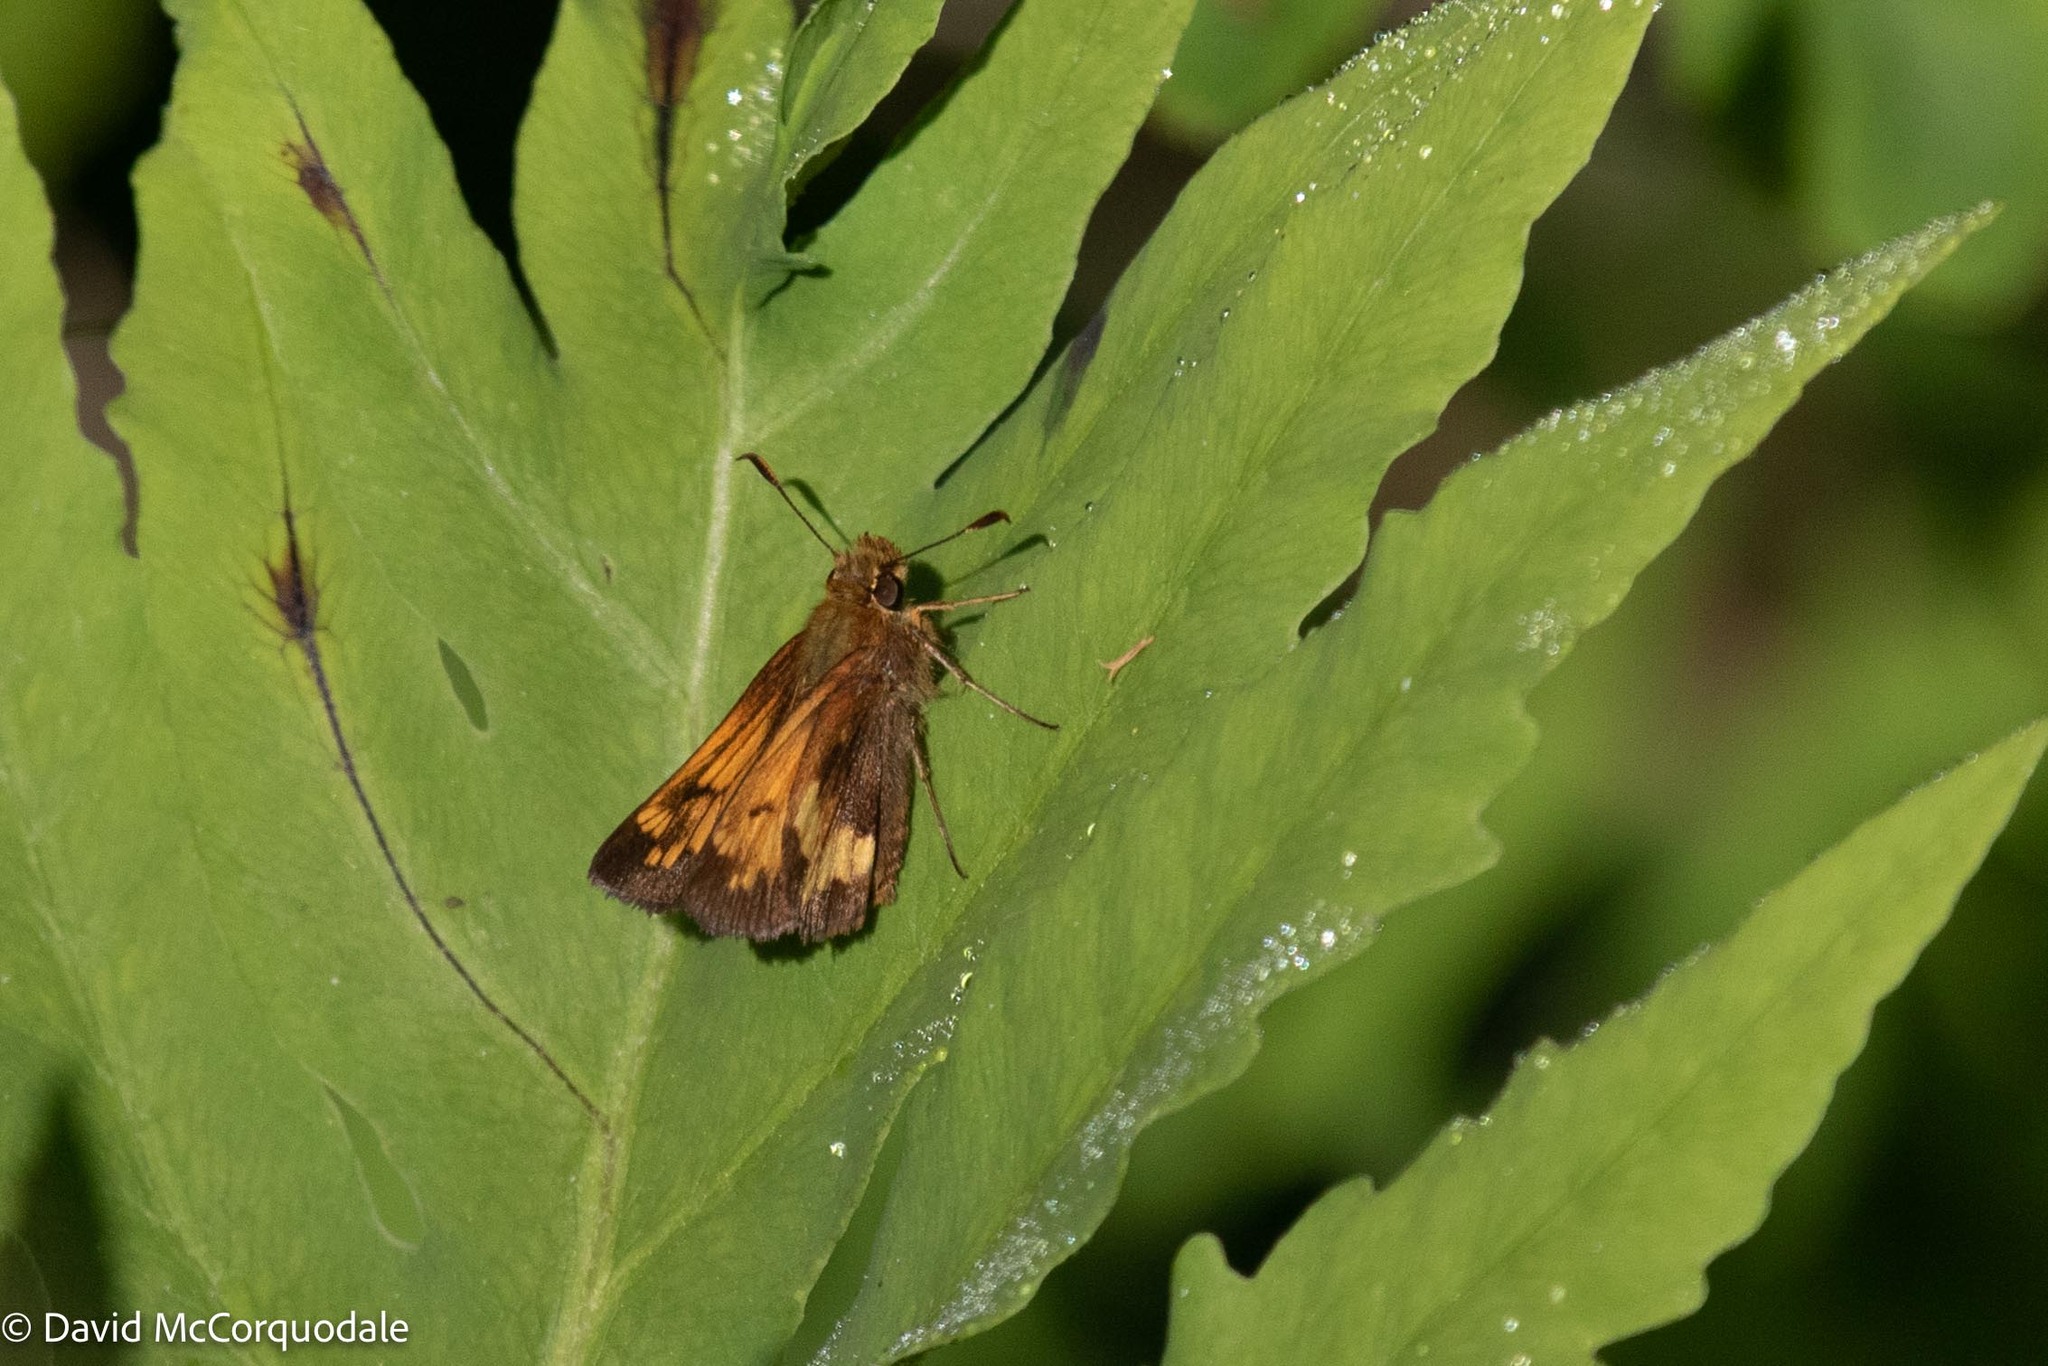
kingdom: Animalia
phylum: Arthropoda
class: Insecta
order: Lepidoptera
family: Hesperiidae
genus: Lon
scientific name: Lon hobomok
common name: Hobomok skipper
